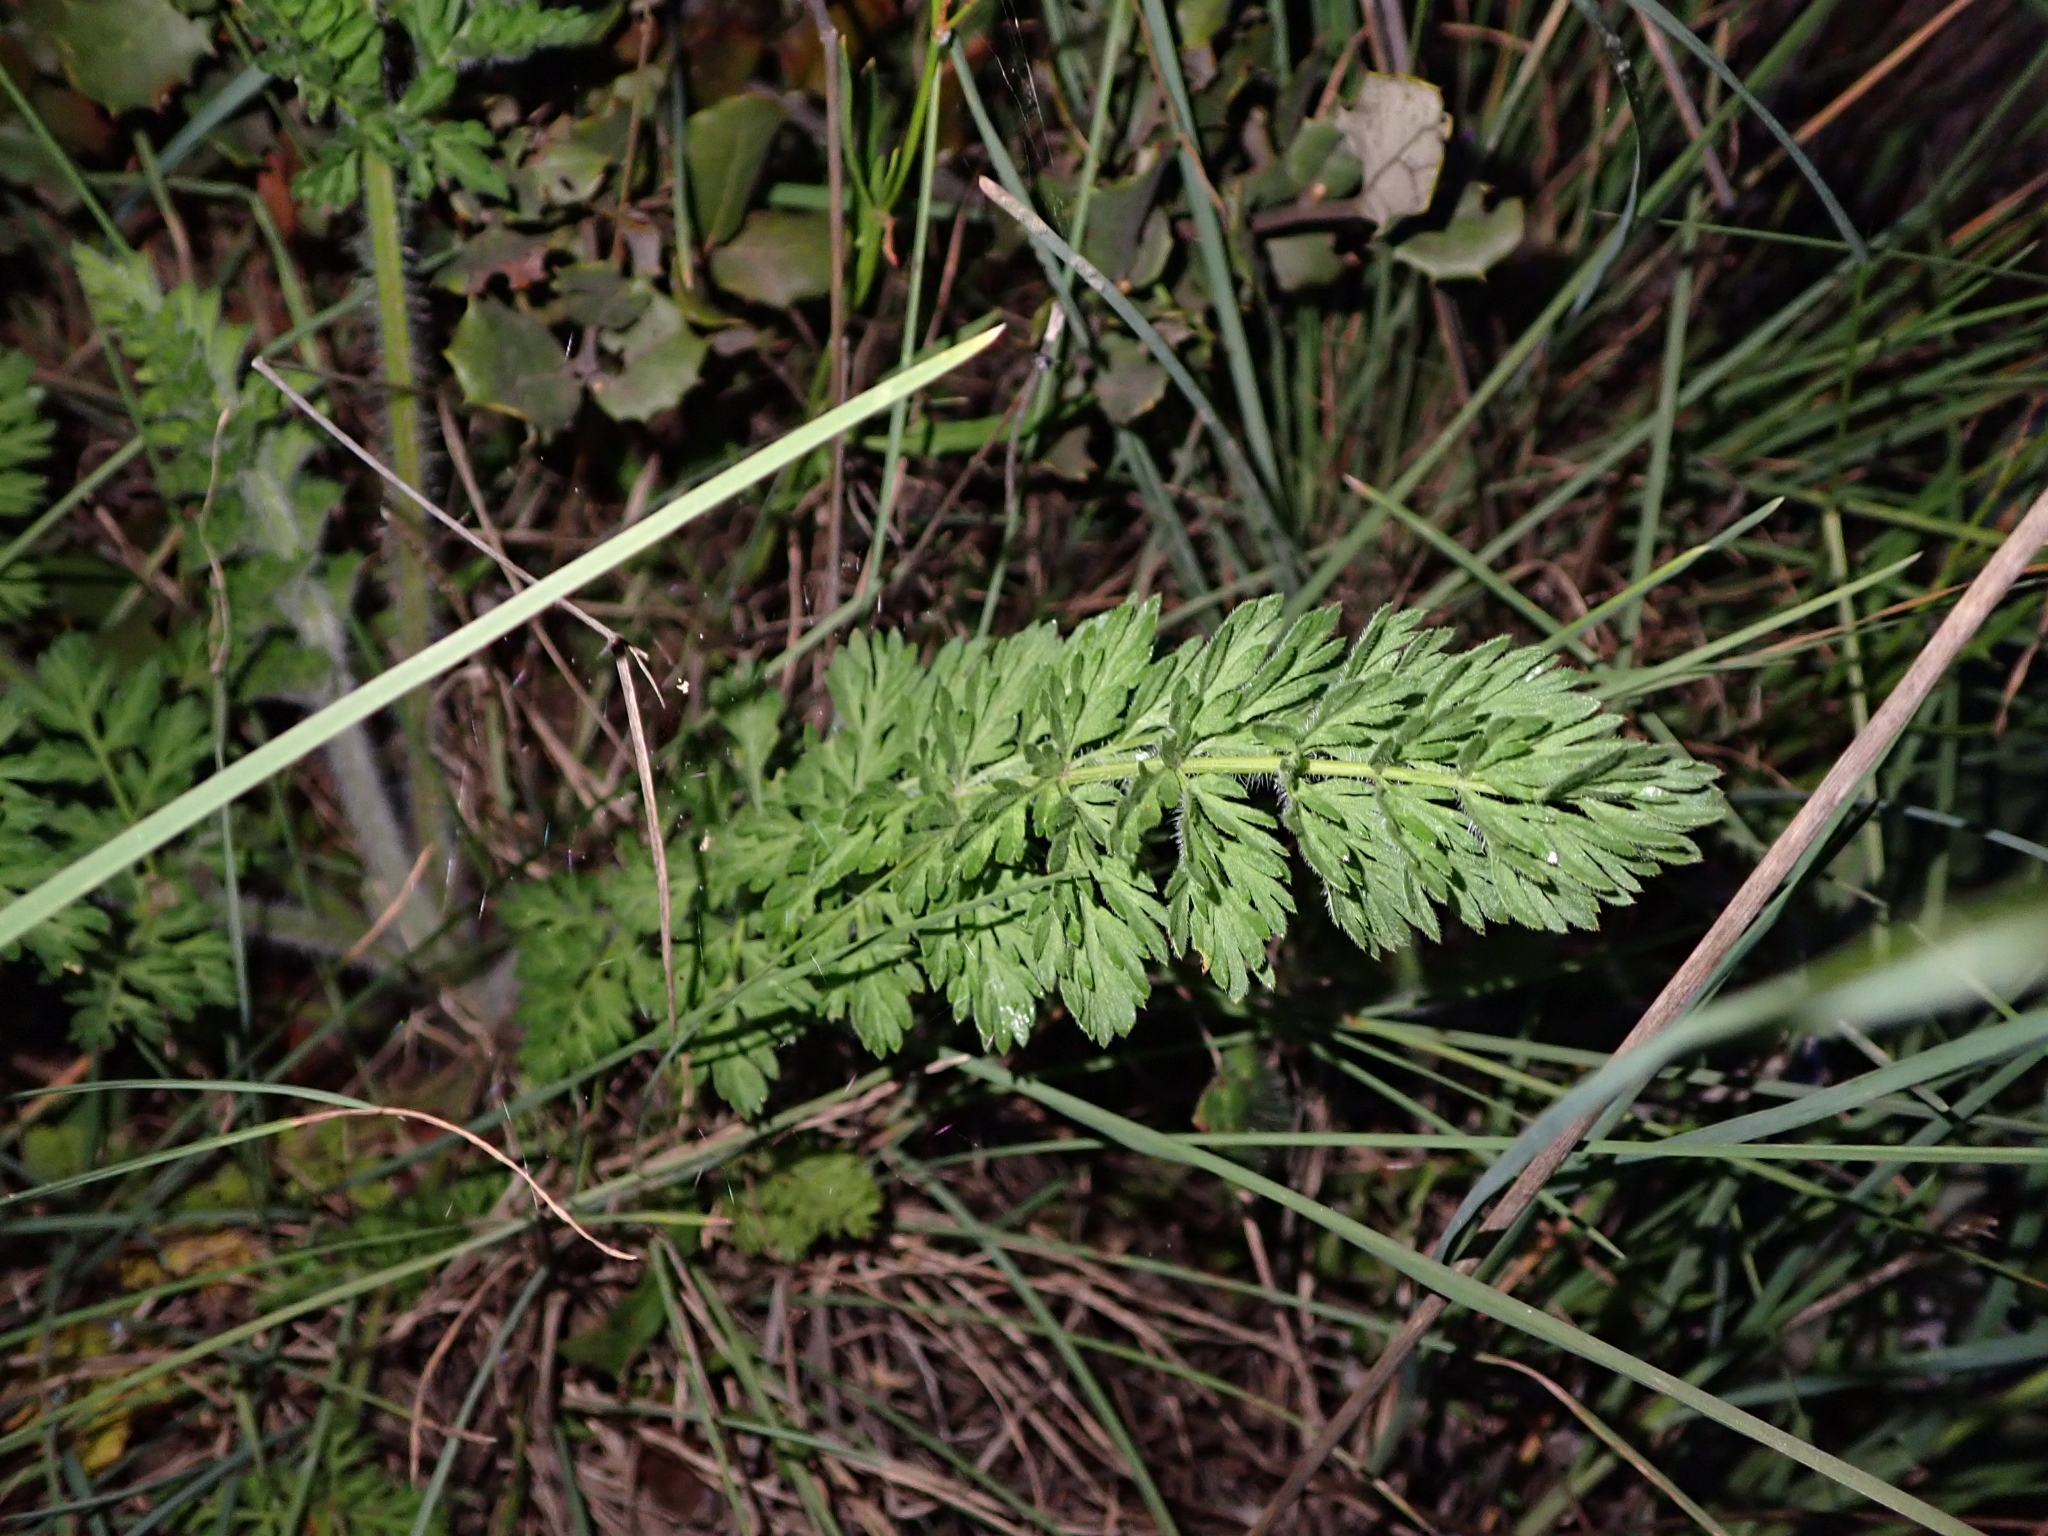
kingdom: Plantae
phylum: Tracheophyta
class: Magnoliopsida
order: Apiales
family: Apiaceae
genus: Daucus
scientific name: Daucus carota
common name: Wild carrot
